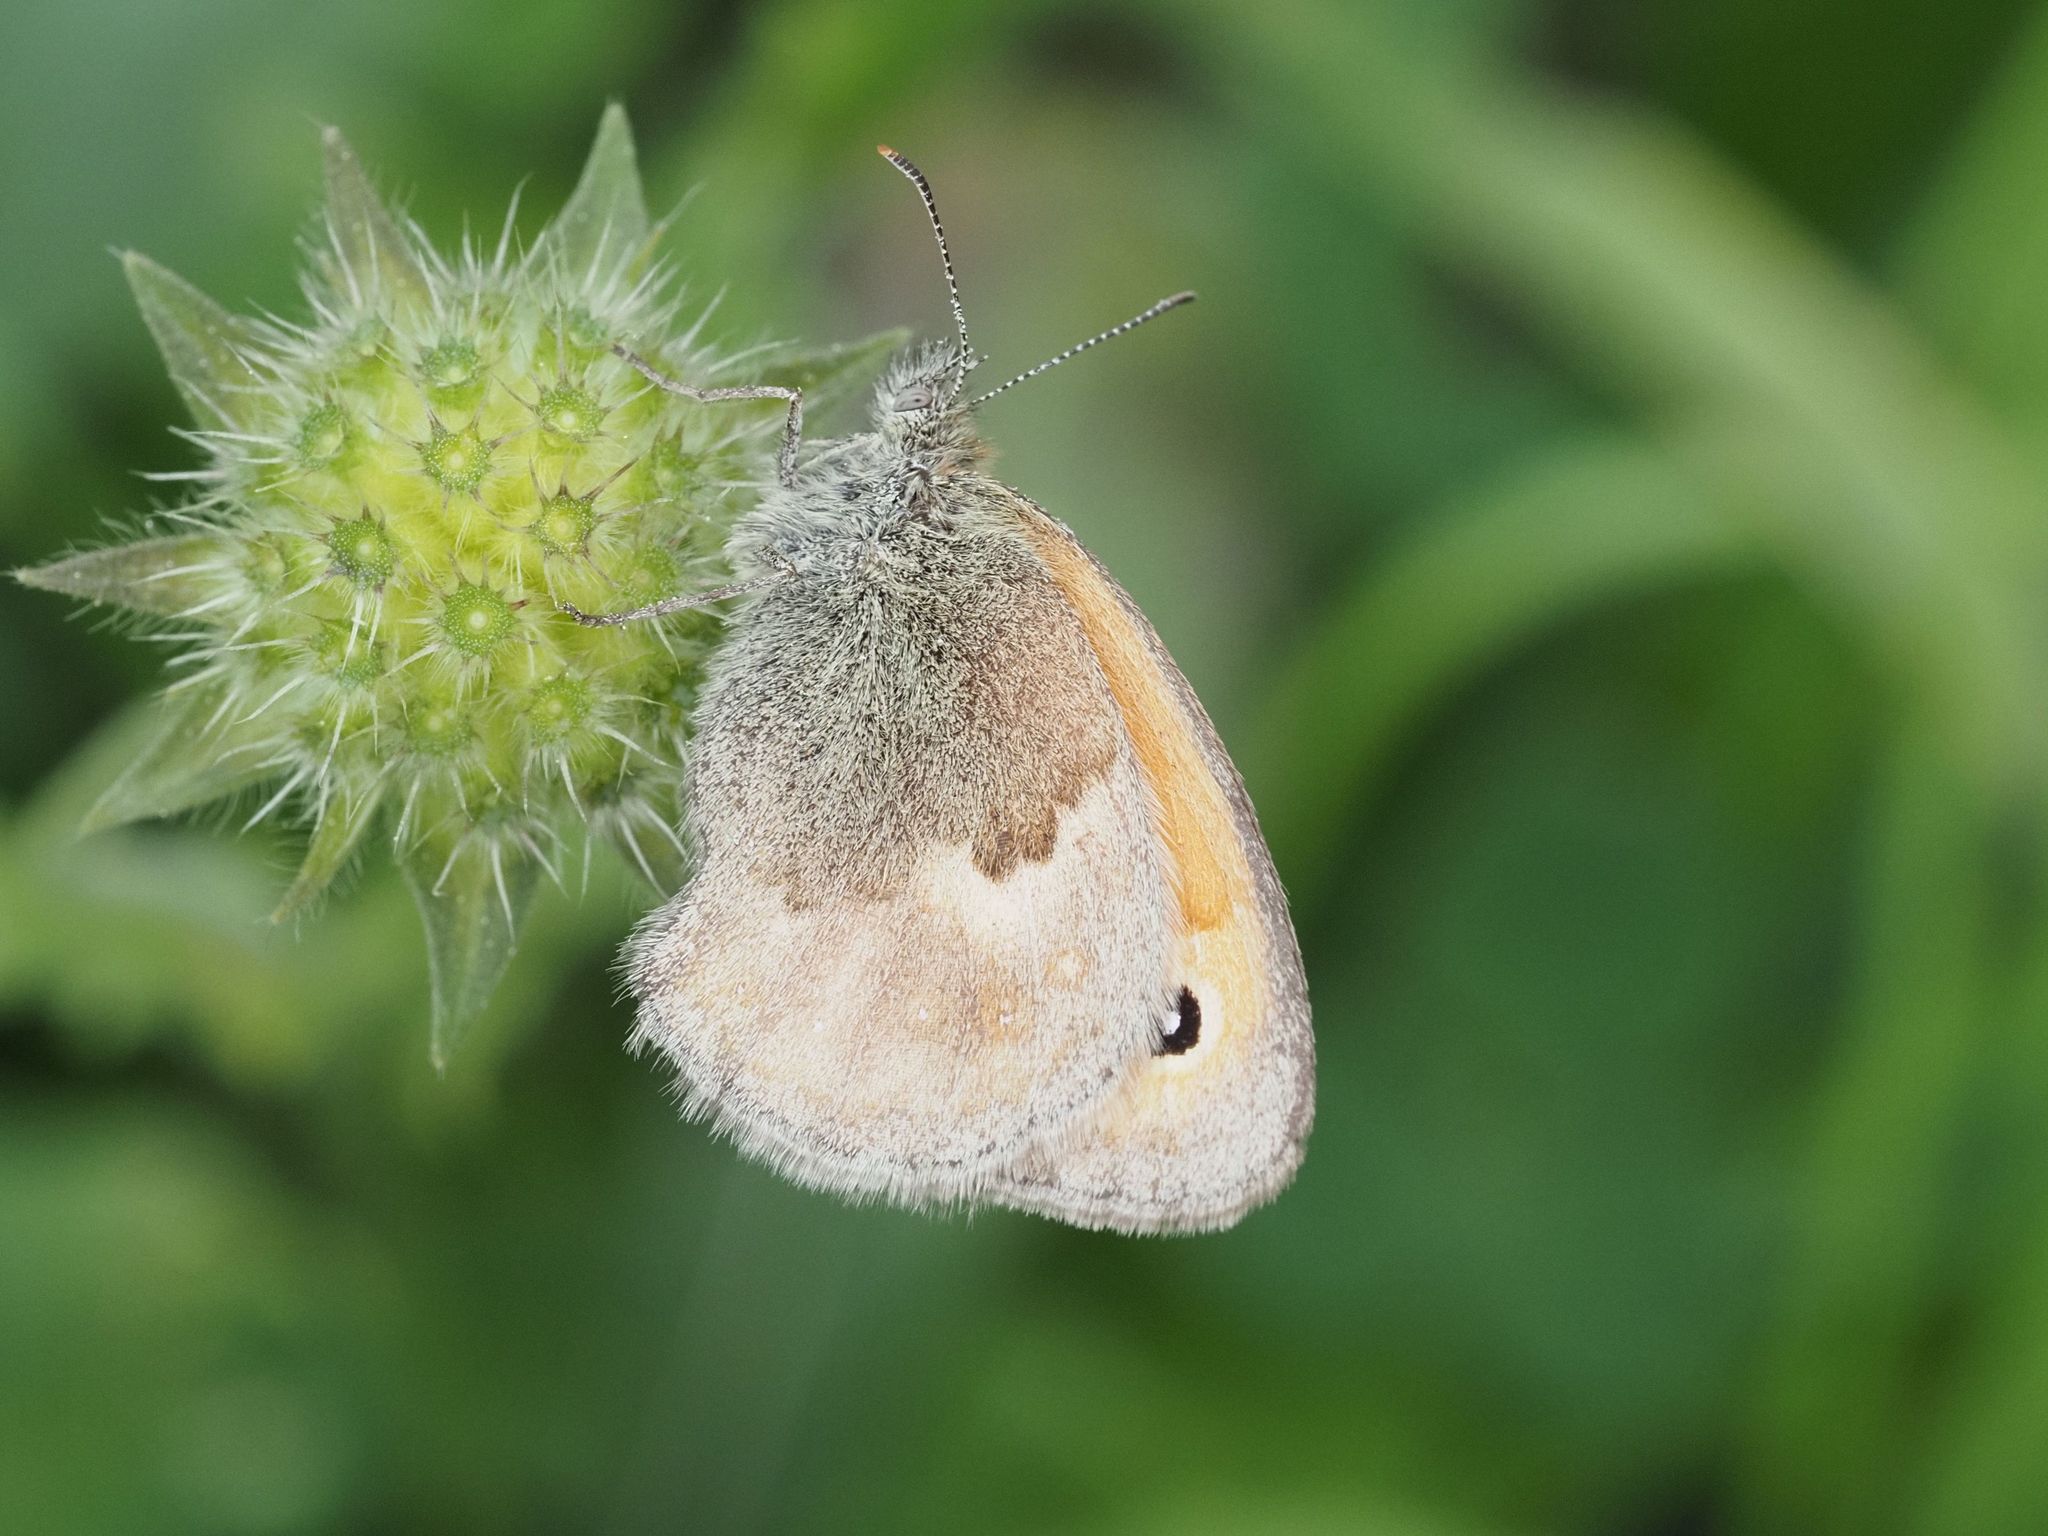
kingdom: Animalia
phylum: Arthropoda
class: Insecta
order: Lepidoptera
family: Nymphalidae
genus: Coenonympha
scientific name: Coenonympha pamphilus
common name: Small heath
